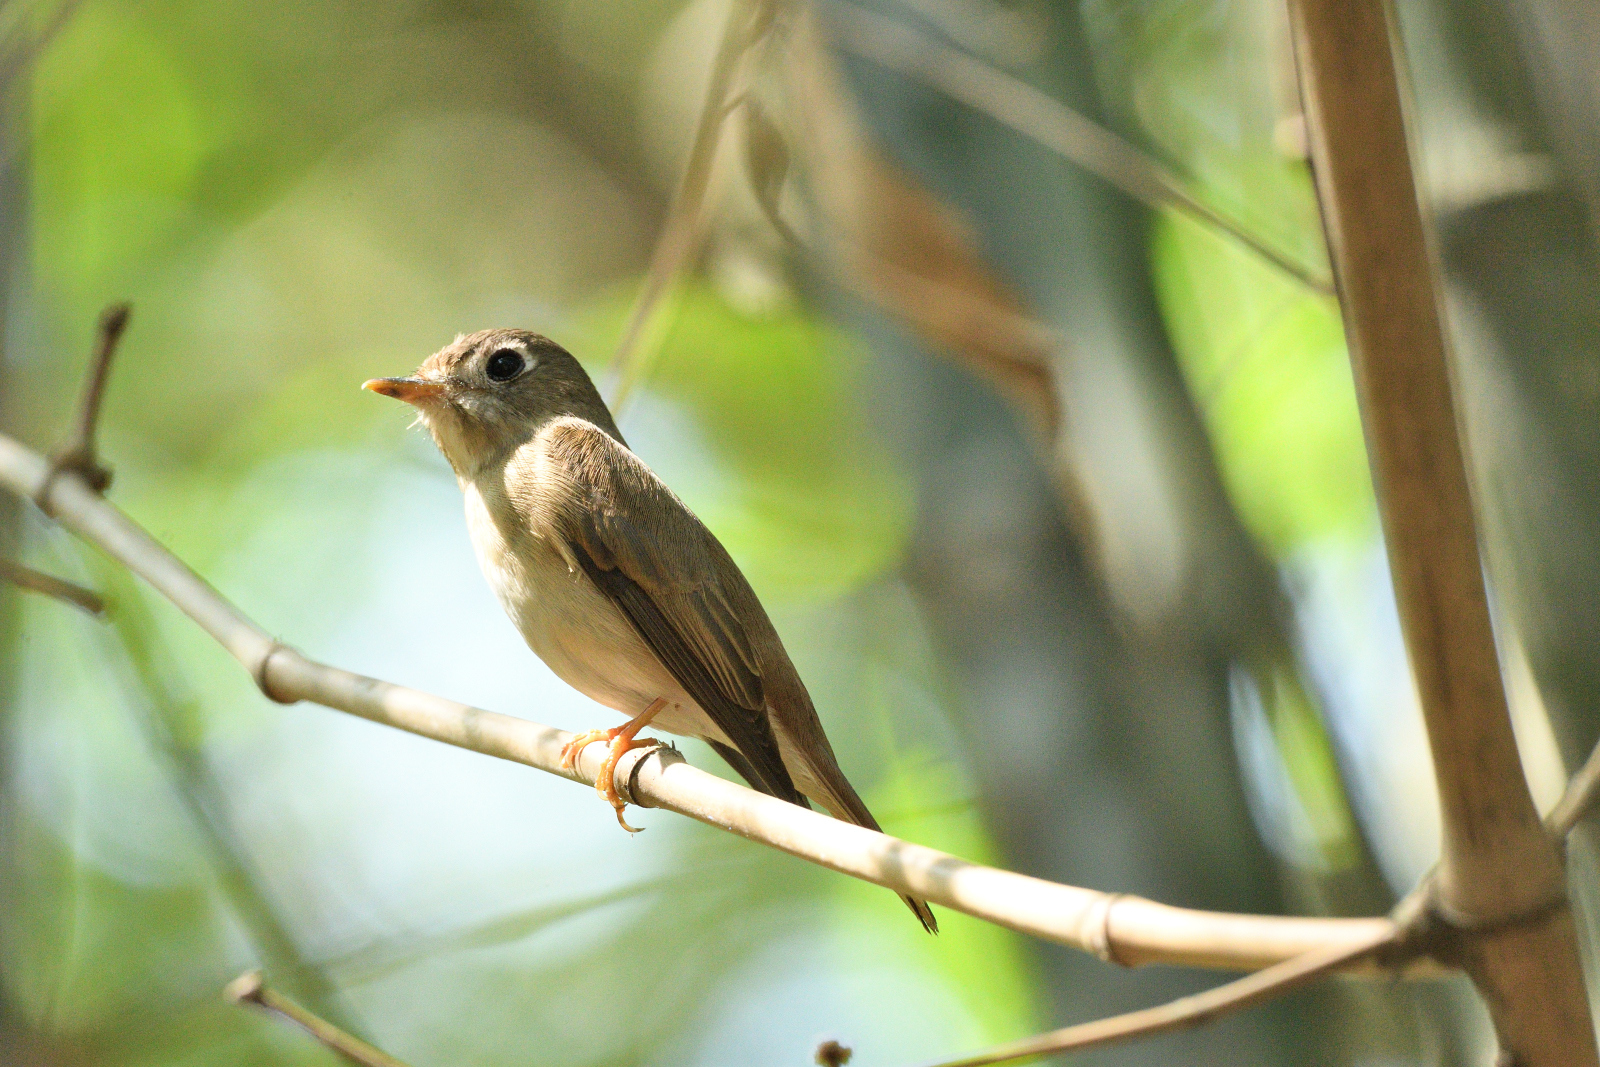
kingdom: Animalia
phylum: Chordata
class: Aves
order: Passeriformes
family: Muscicapidae
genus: Muscicapa
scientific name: Muscicapa muttui
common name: Brown-breasted flycatcher
